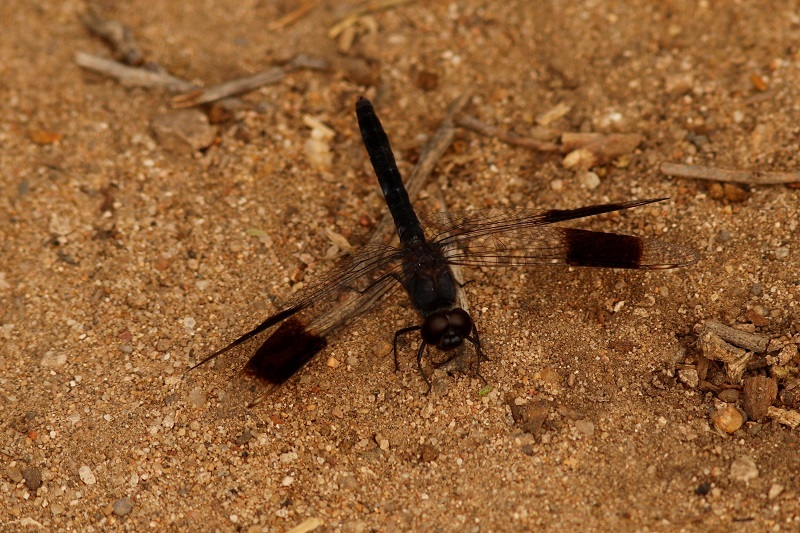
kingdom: Animalia
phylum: Arthropoda
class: Insecta
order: Odonata
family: Libellulidae
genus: Brachythemis
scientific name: Brachythemis leucosticta
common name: Banded groundling
